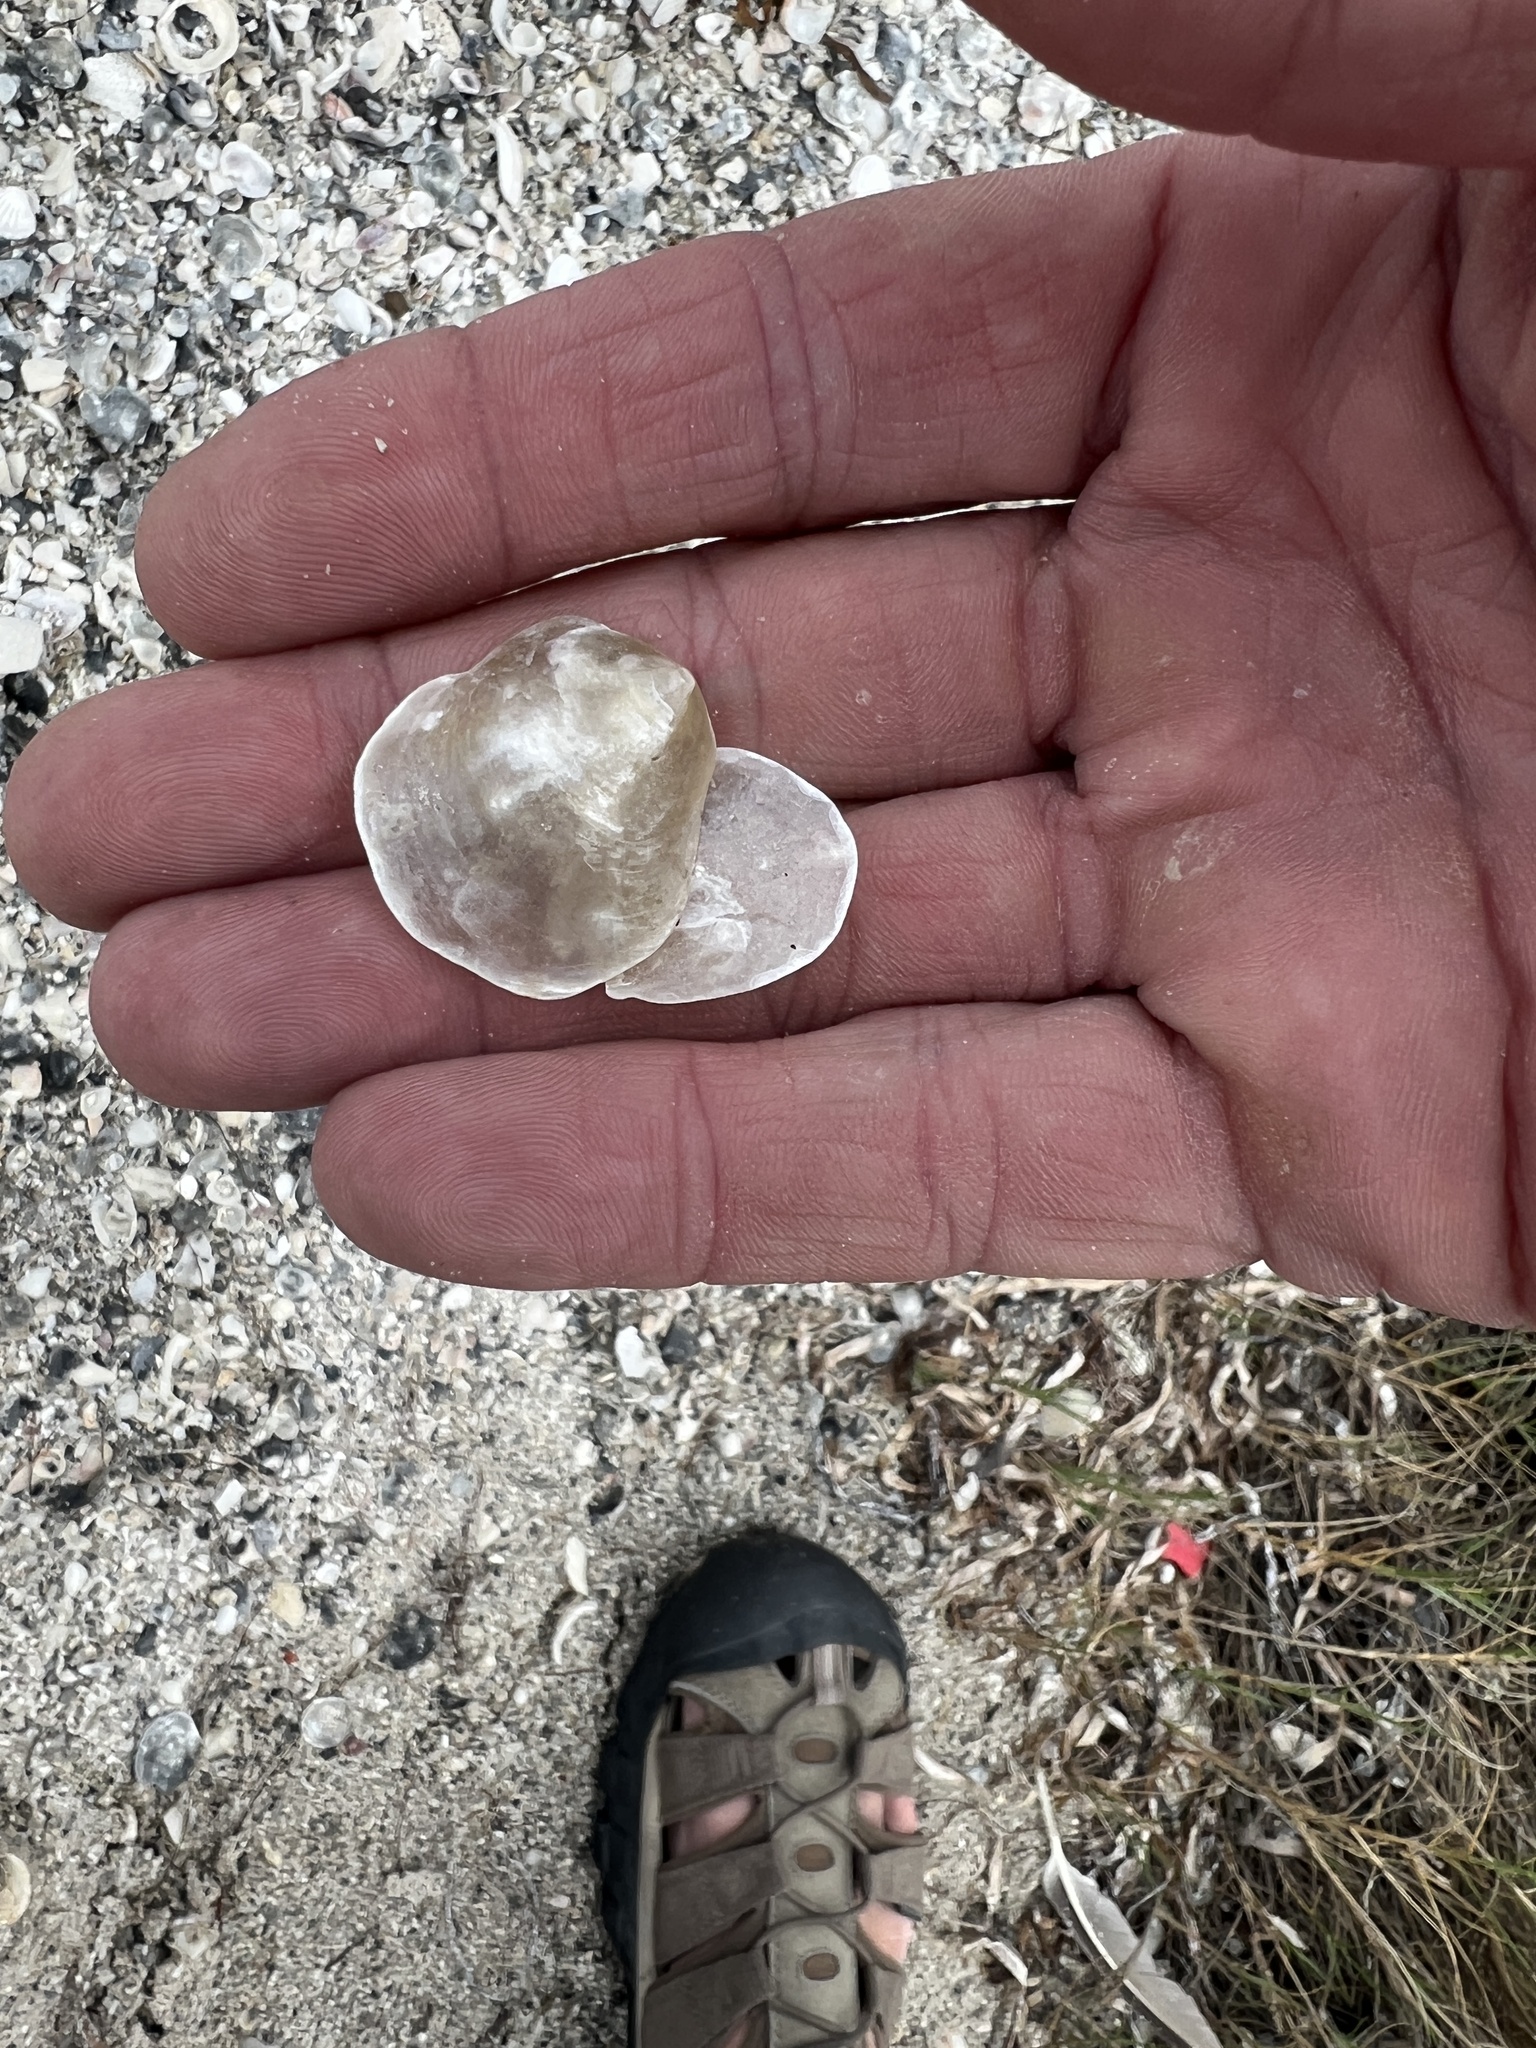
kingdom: Animalia
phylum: Mollusca
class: Bivalvia
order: Pectinida
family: Anomiidae
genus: Anomia
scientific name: Anomia simplex
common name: Common jingle shell
